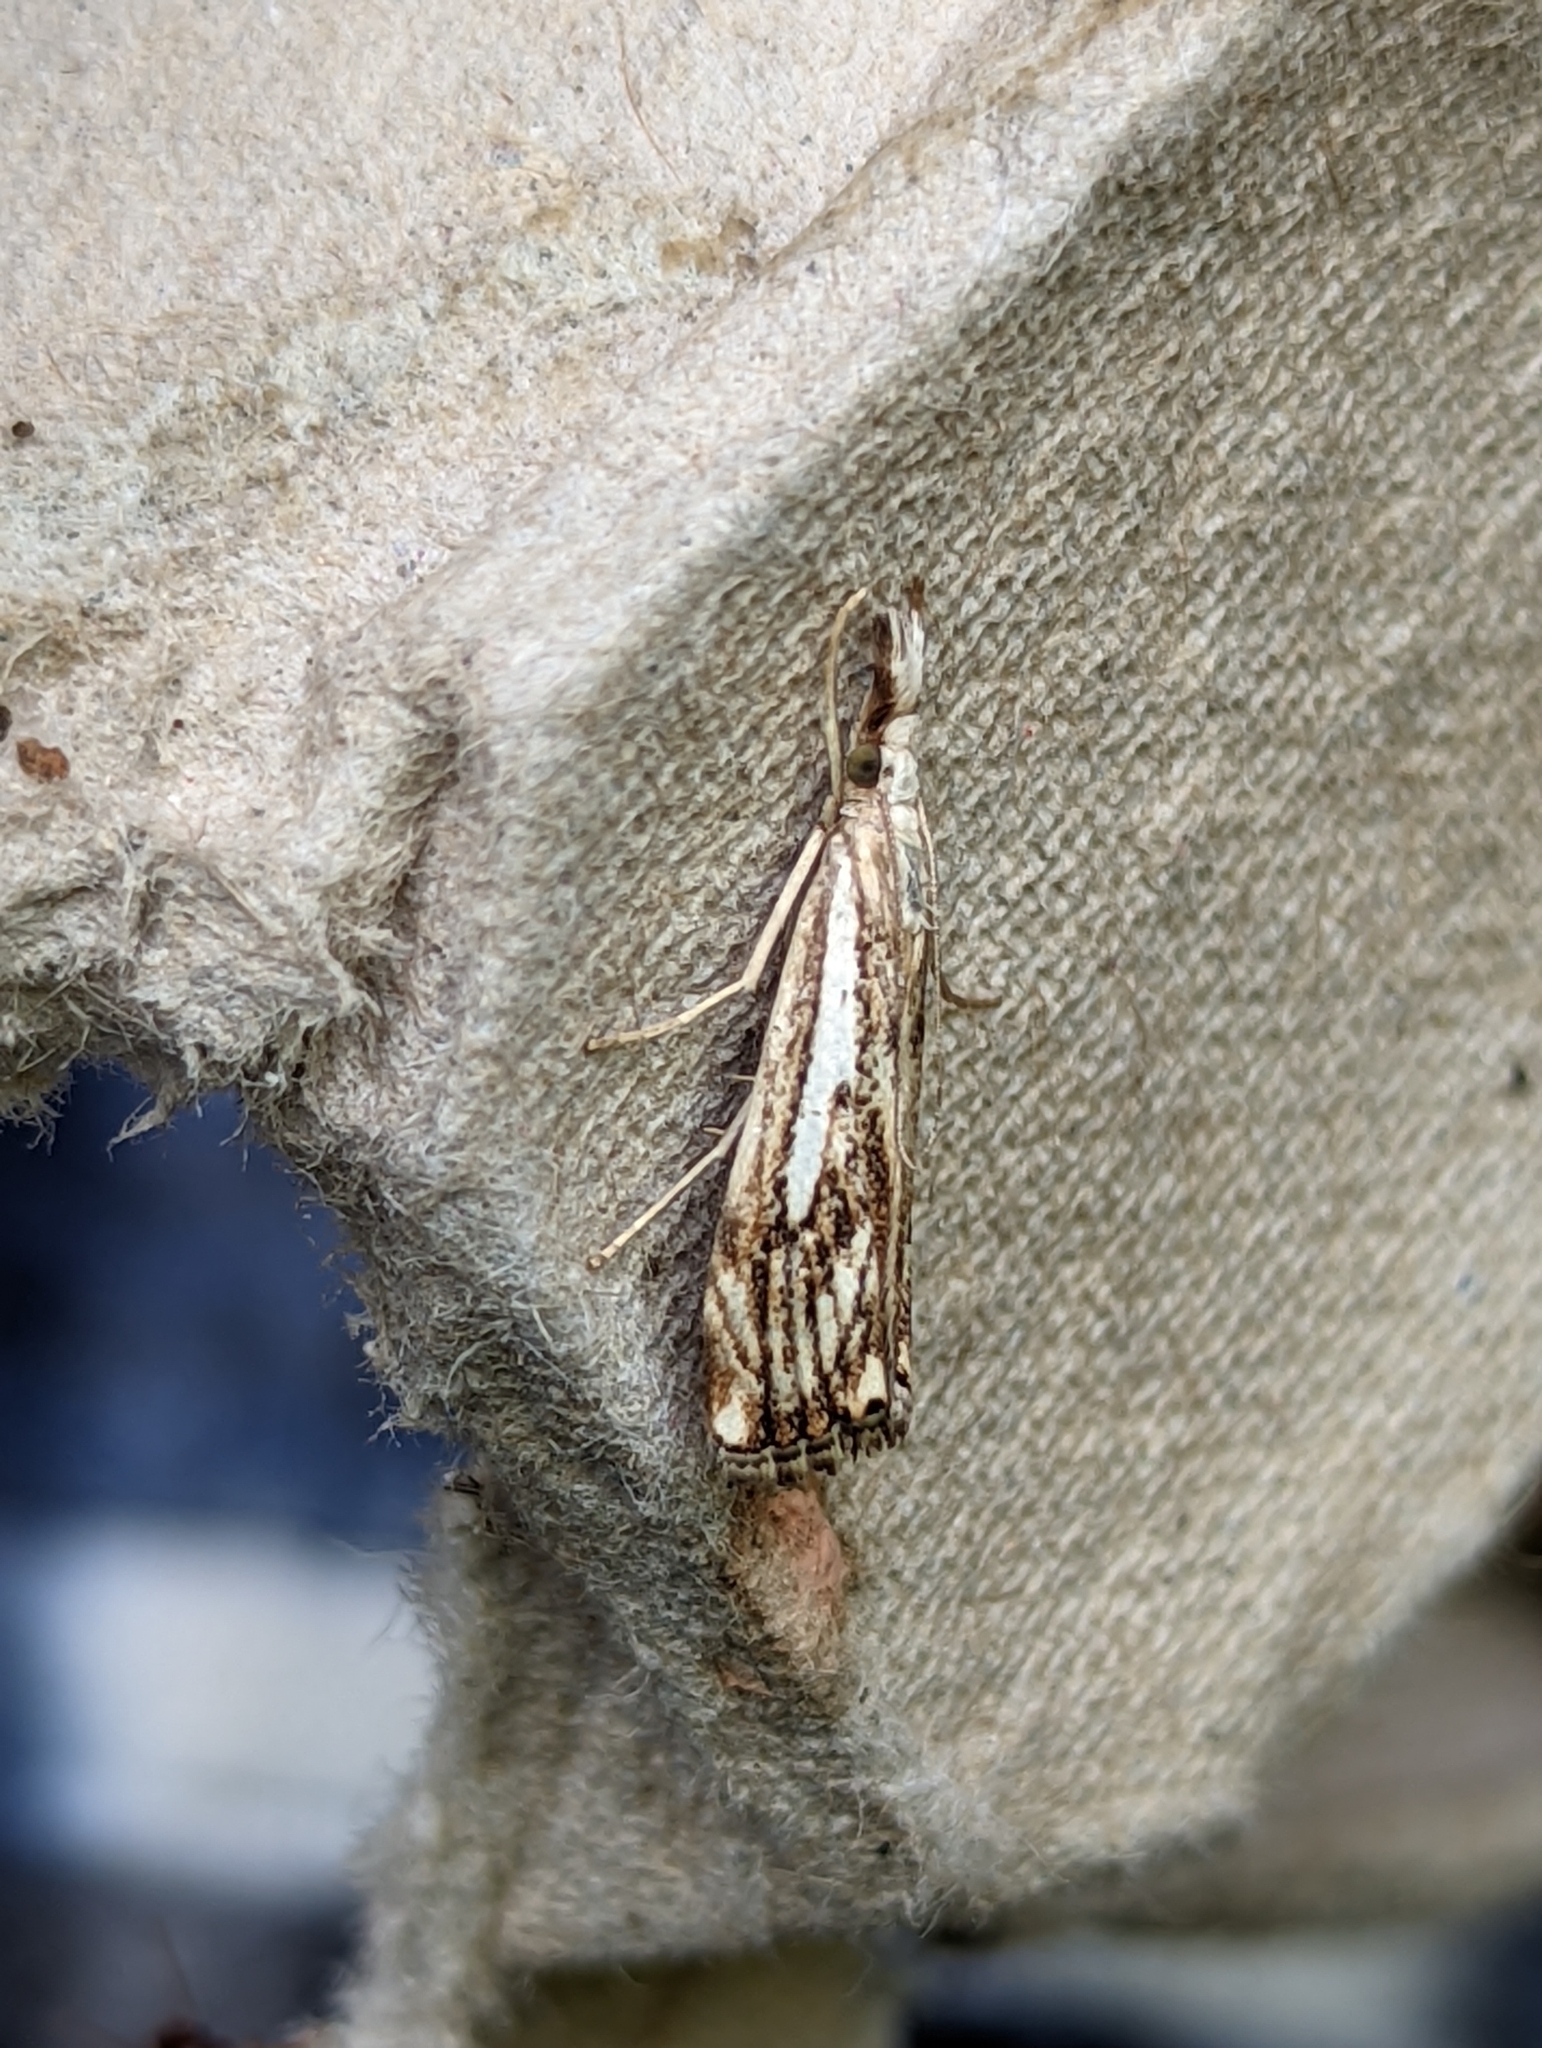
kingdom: Animalia
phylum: Arthropoda
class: Insecta
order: Lepidoptera
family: Crambidae
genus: Catoptria
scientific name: Catoptria falsella
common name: Chequered grass-veneer
